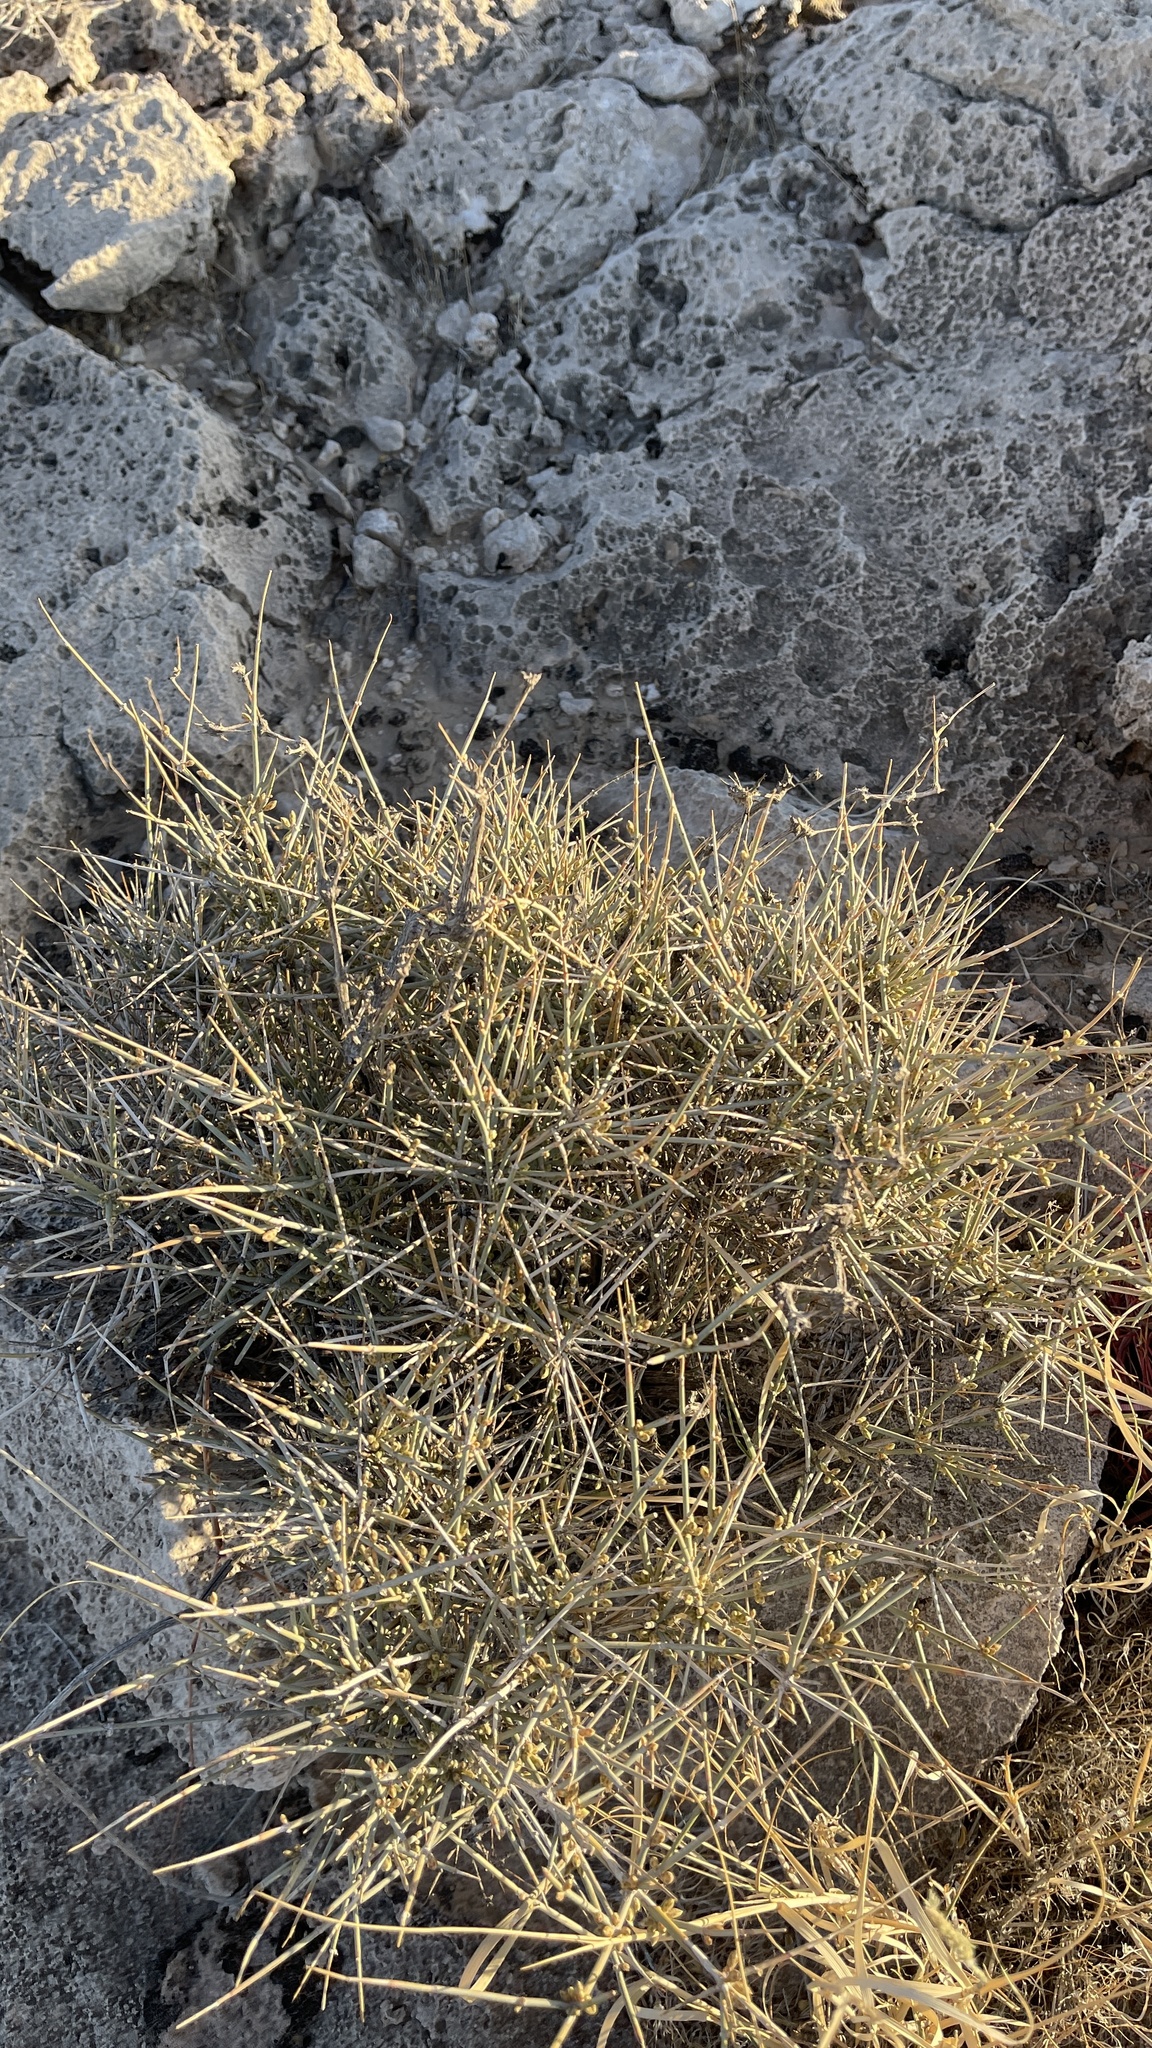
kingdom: Plantae
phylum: Tracheophyta
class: Gnetopsida
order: Ephedrales
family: Ephedraceae
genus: Ephedra
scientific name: Ephedra nevadensis
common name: Gray ephedra
